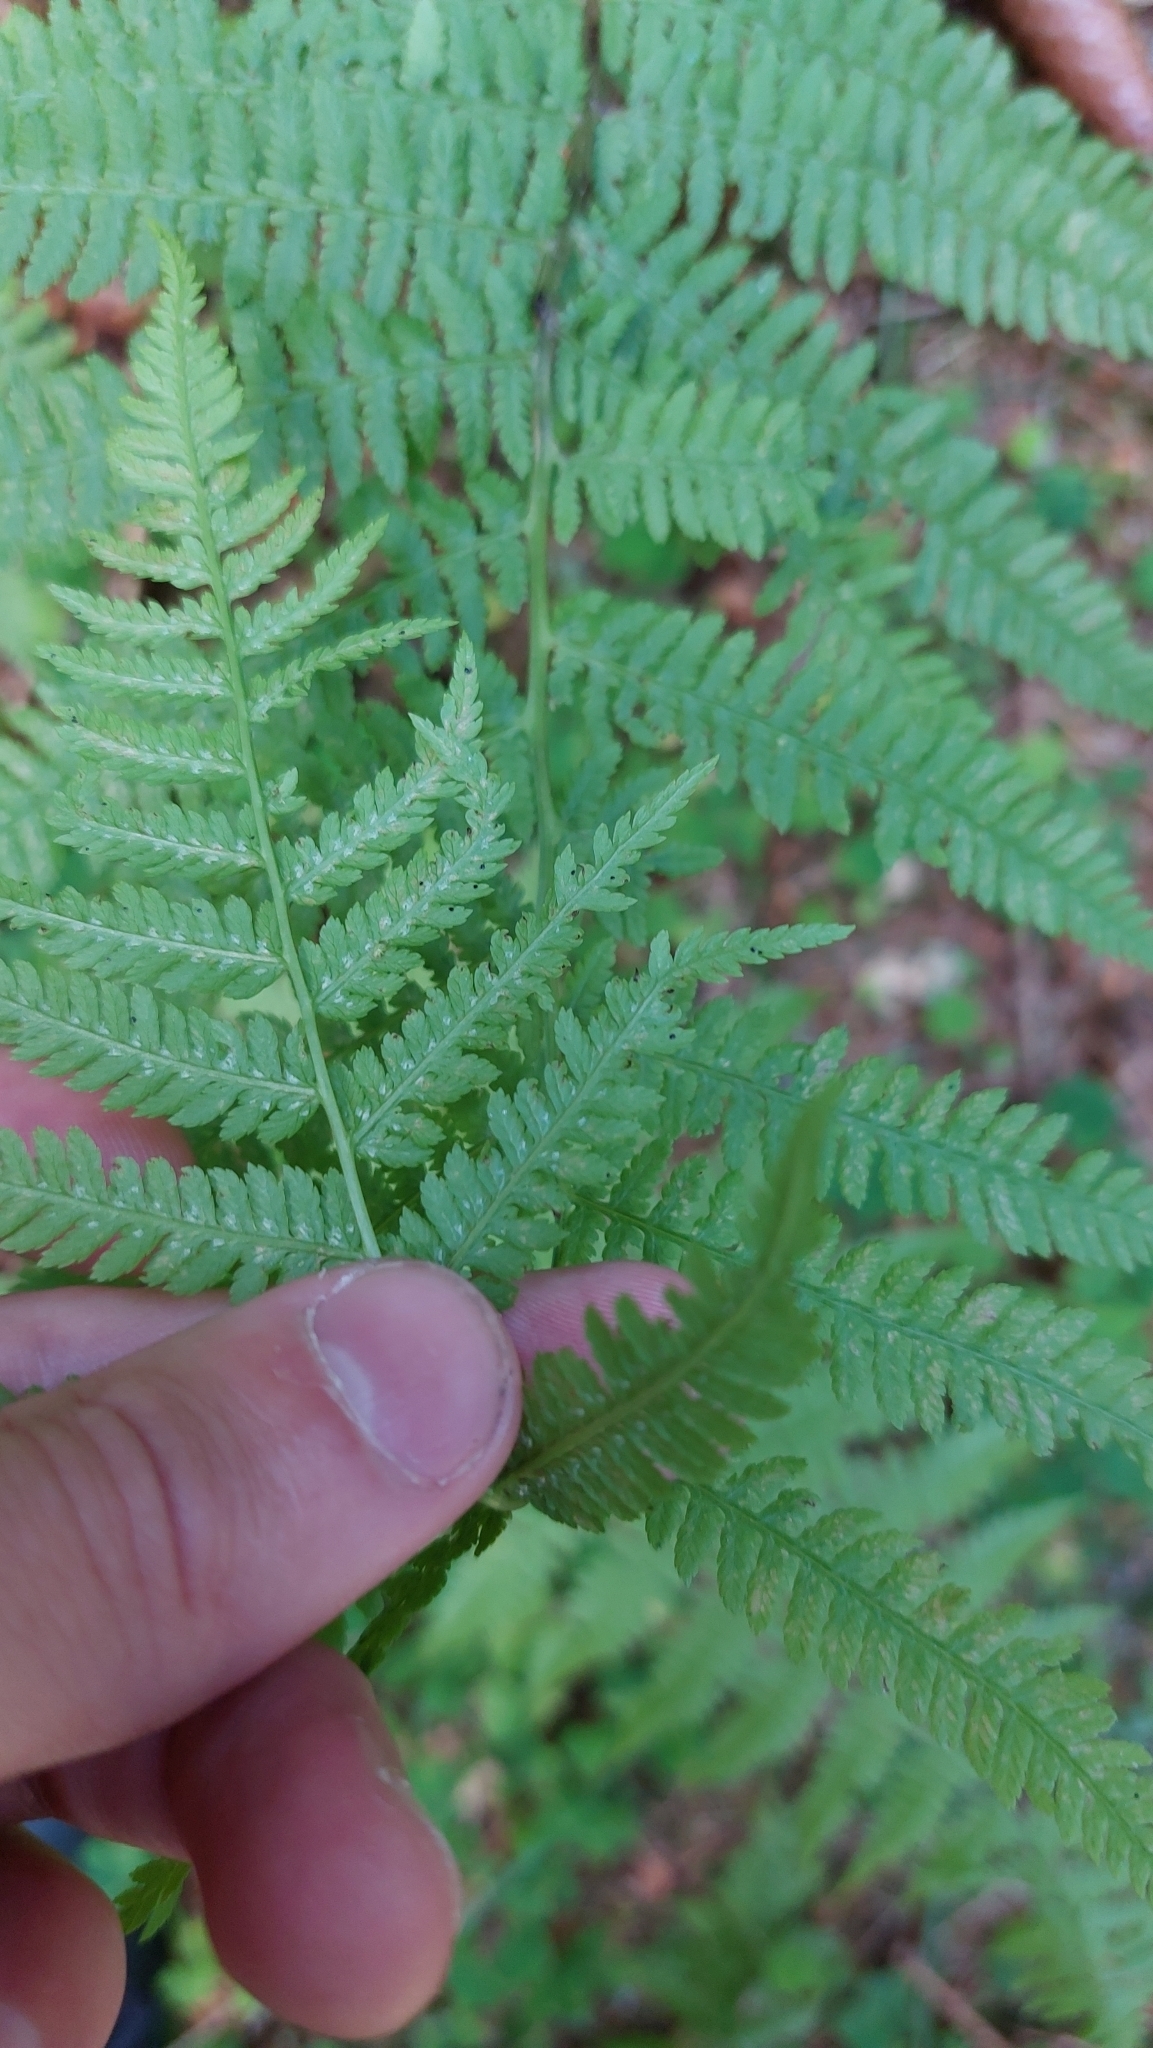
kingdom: Plantae
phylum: Tracheophyta
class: Polypodiopsida
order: Polypodiales
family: Dryopteridaceae
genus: Dryopteris
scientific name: Dryopteris carthusiana
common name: Narrow buckler-fern
